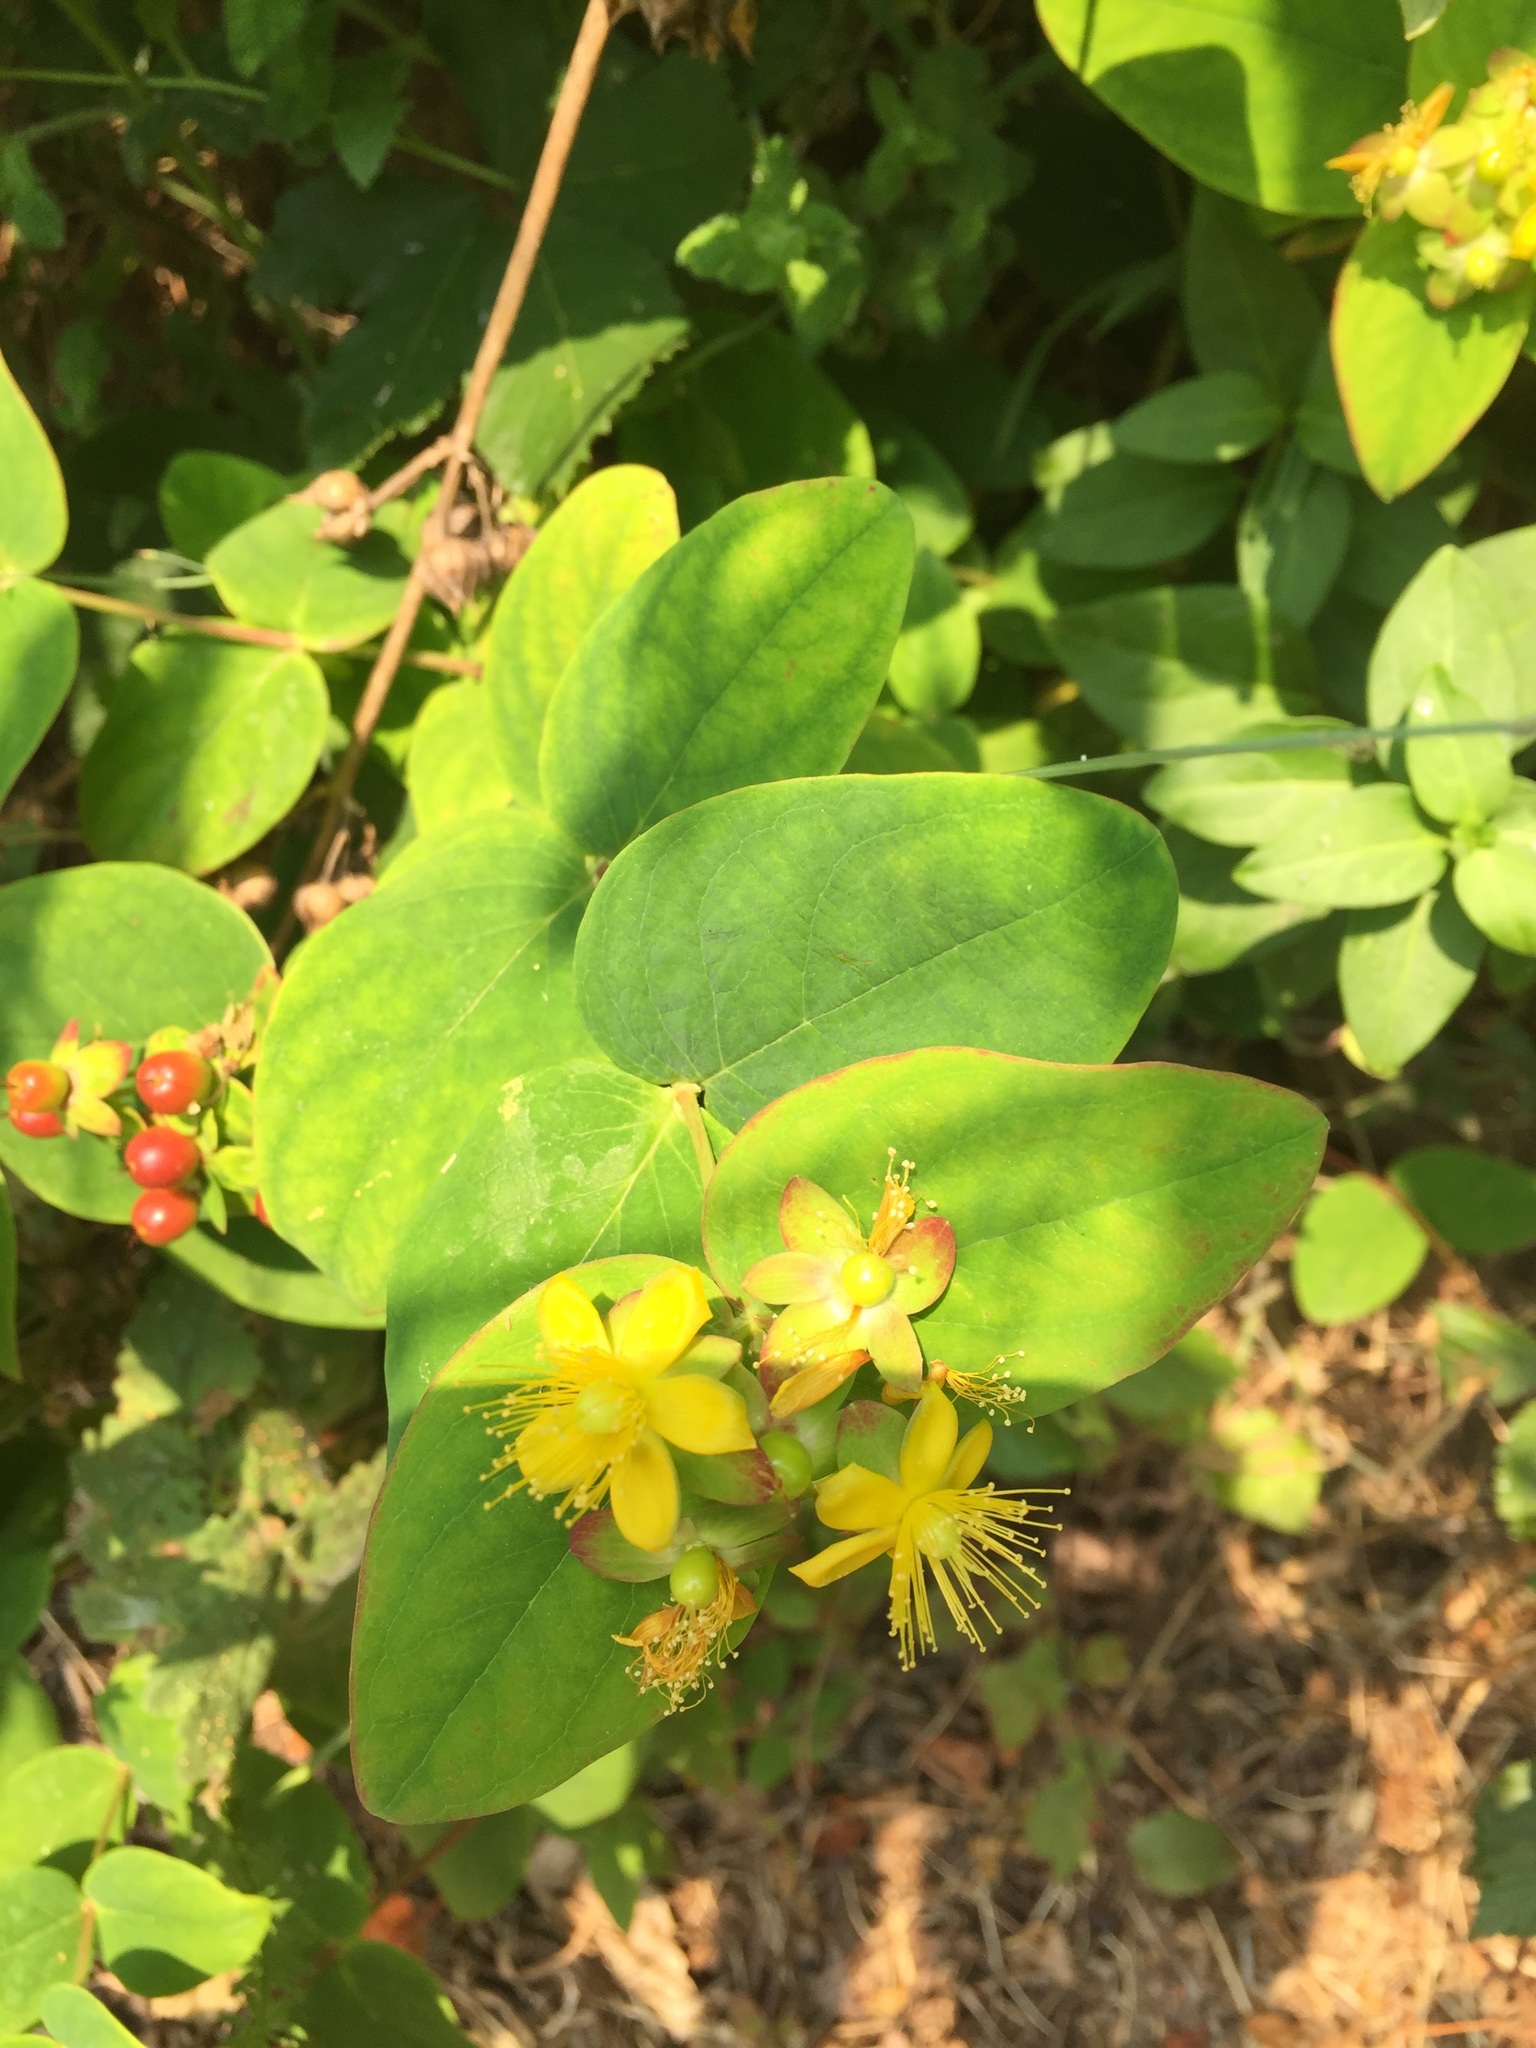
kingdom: Plantae
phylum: Tracheophyta
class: Magnoliopsida
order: Malpighiales
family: Hypericaceae
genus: Hypericum
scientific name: Hypericum androsaemum
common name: Sweet-amber
